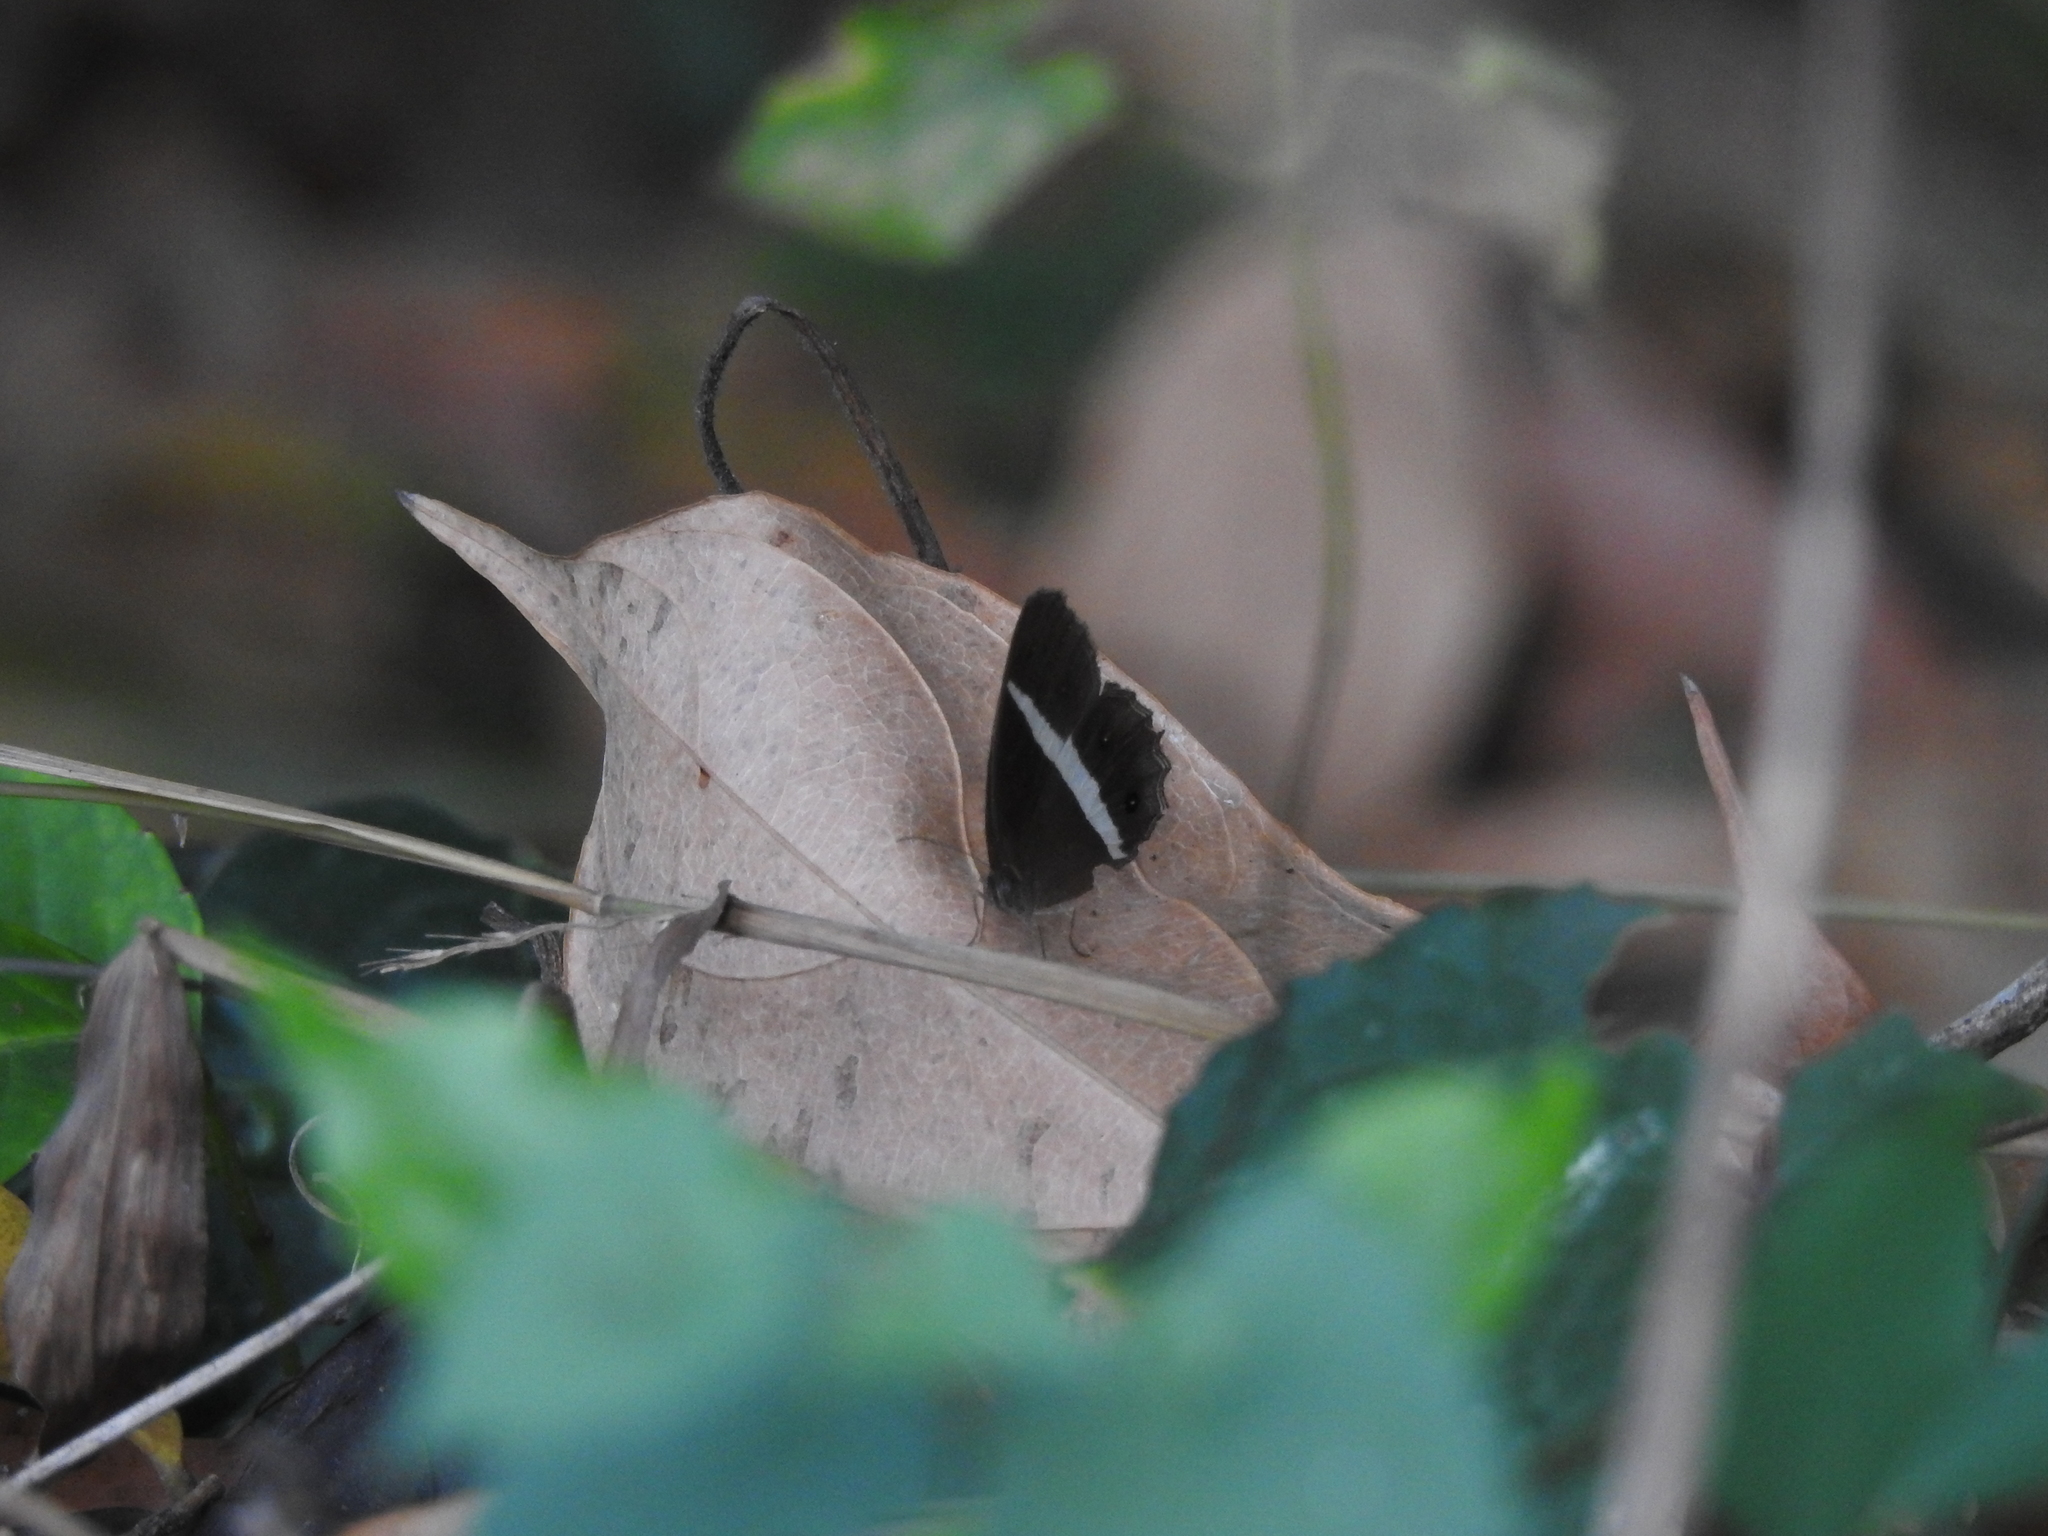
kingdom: Animalia
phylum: Arthropoda
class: Insecta
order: Lepidoptera
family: Nymphalidae
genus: Orsotriaena
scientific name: Orsotriaena medus
